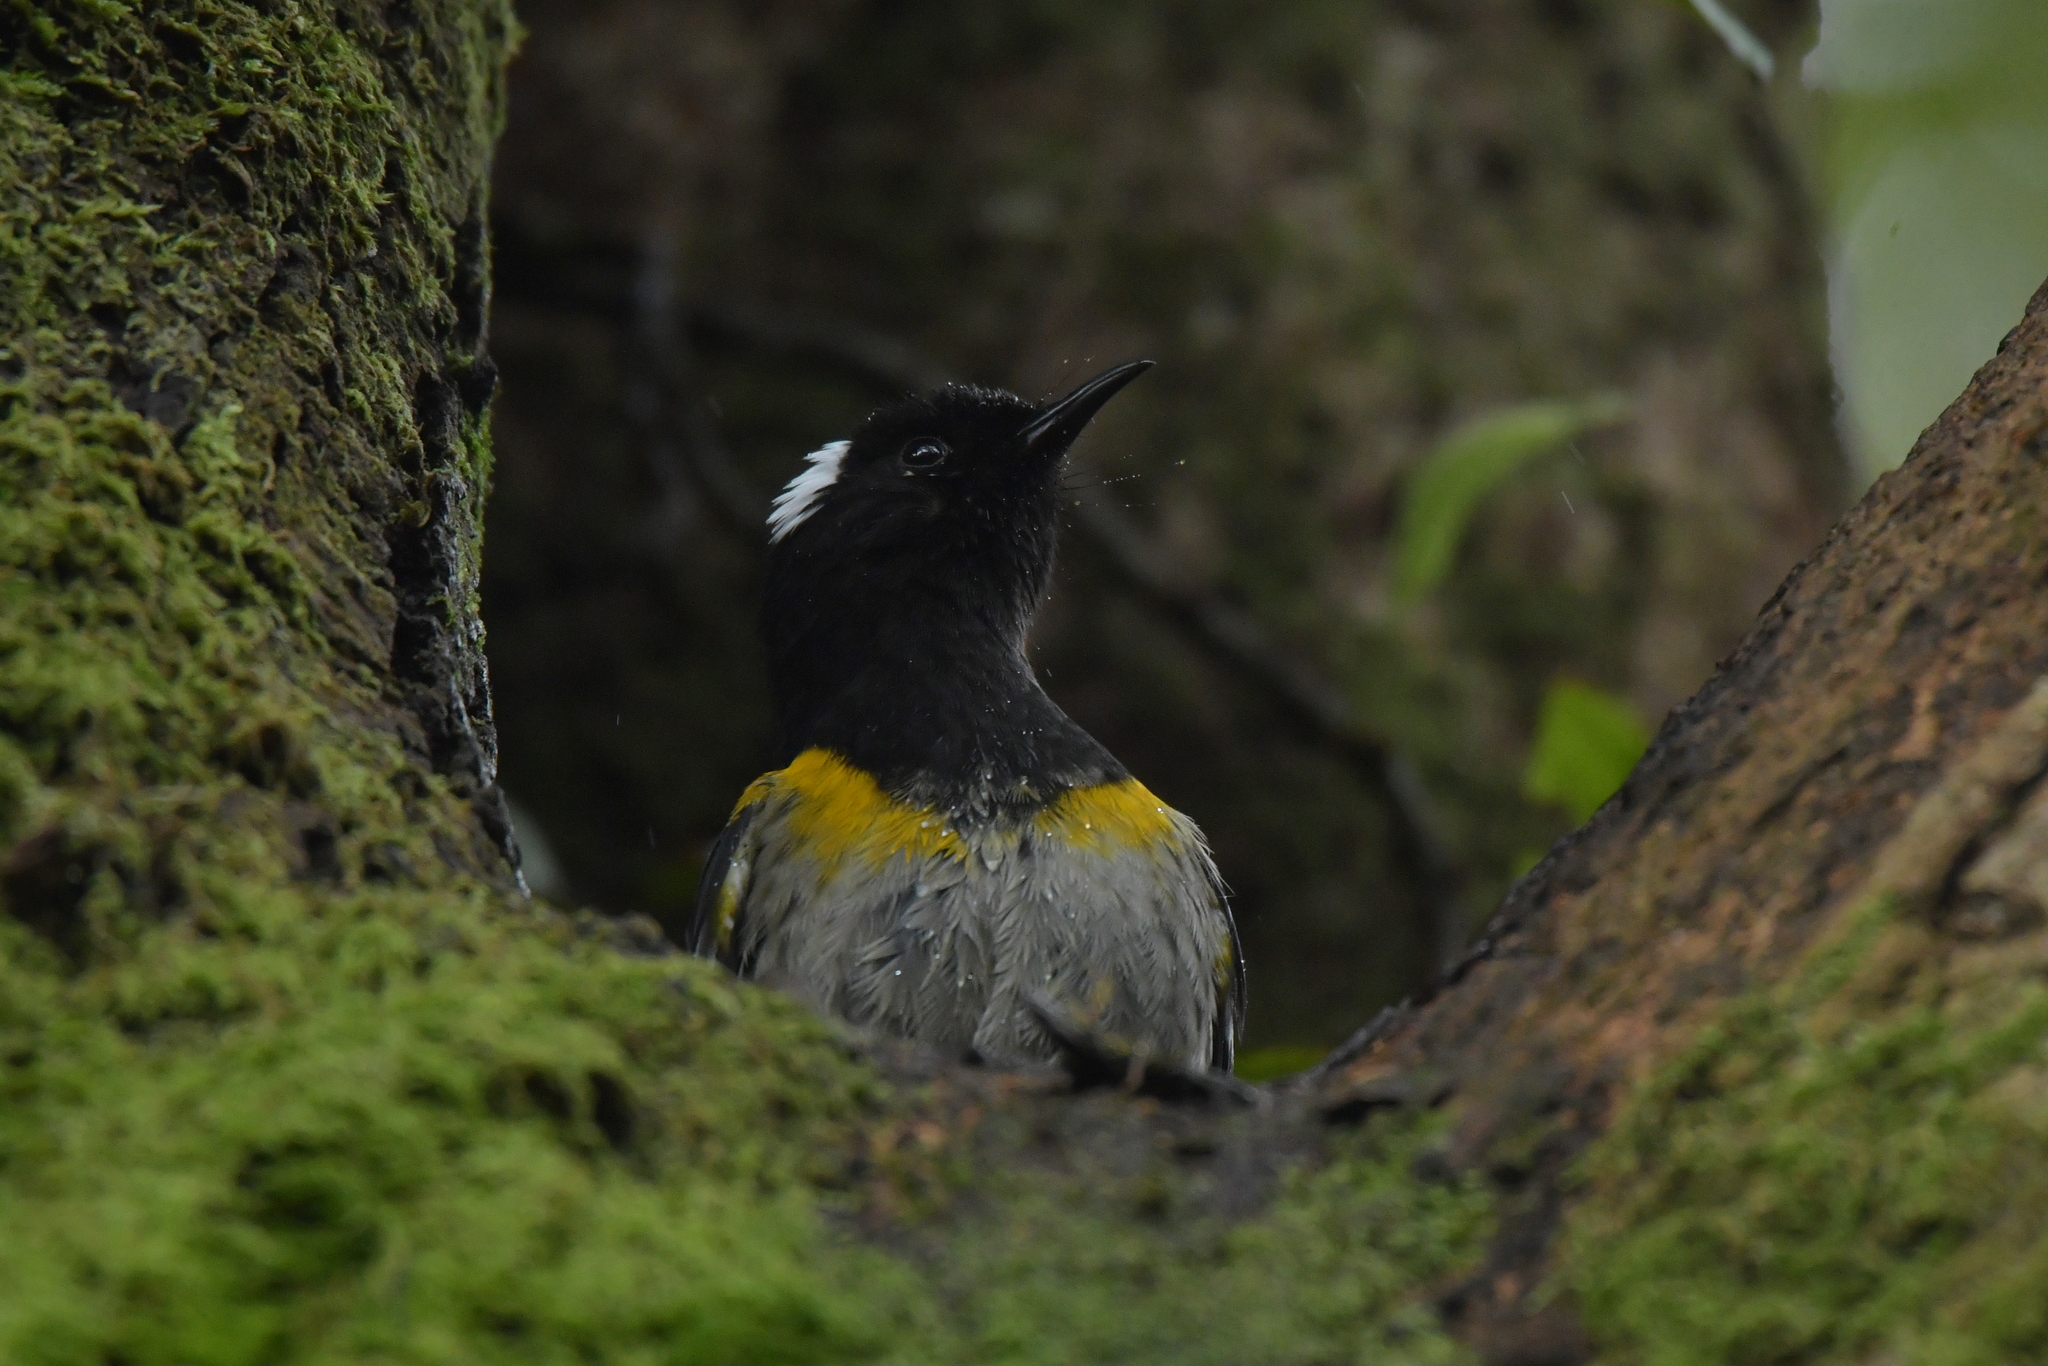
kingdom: Animalia
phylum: Chordata
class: Aves
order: Passeriformes
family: Notiomystidae
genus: Notiomystis
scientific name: Notiomystis cincta
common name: Stitchbird
